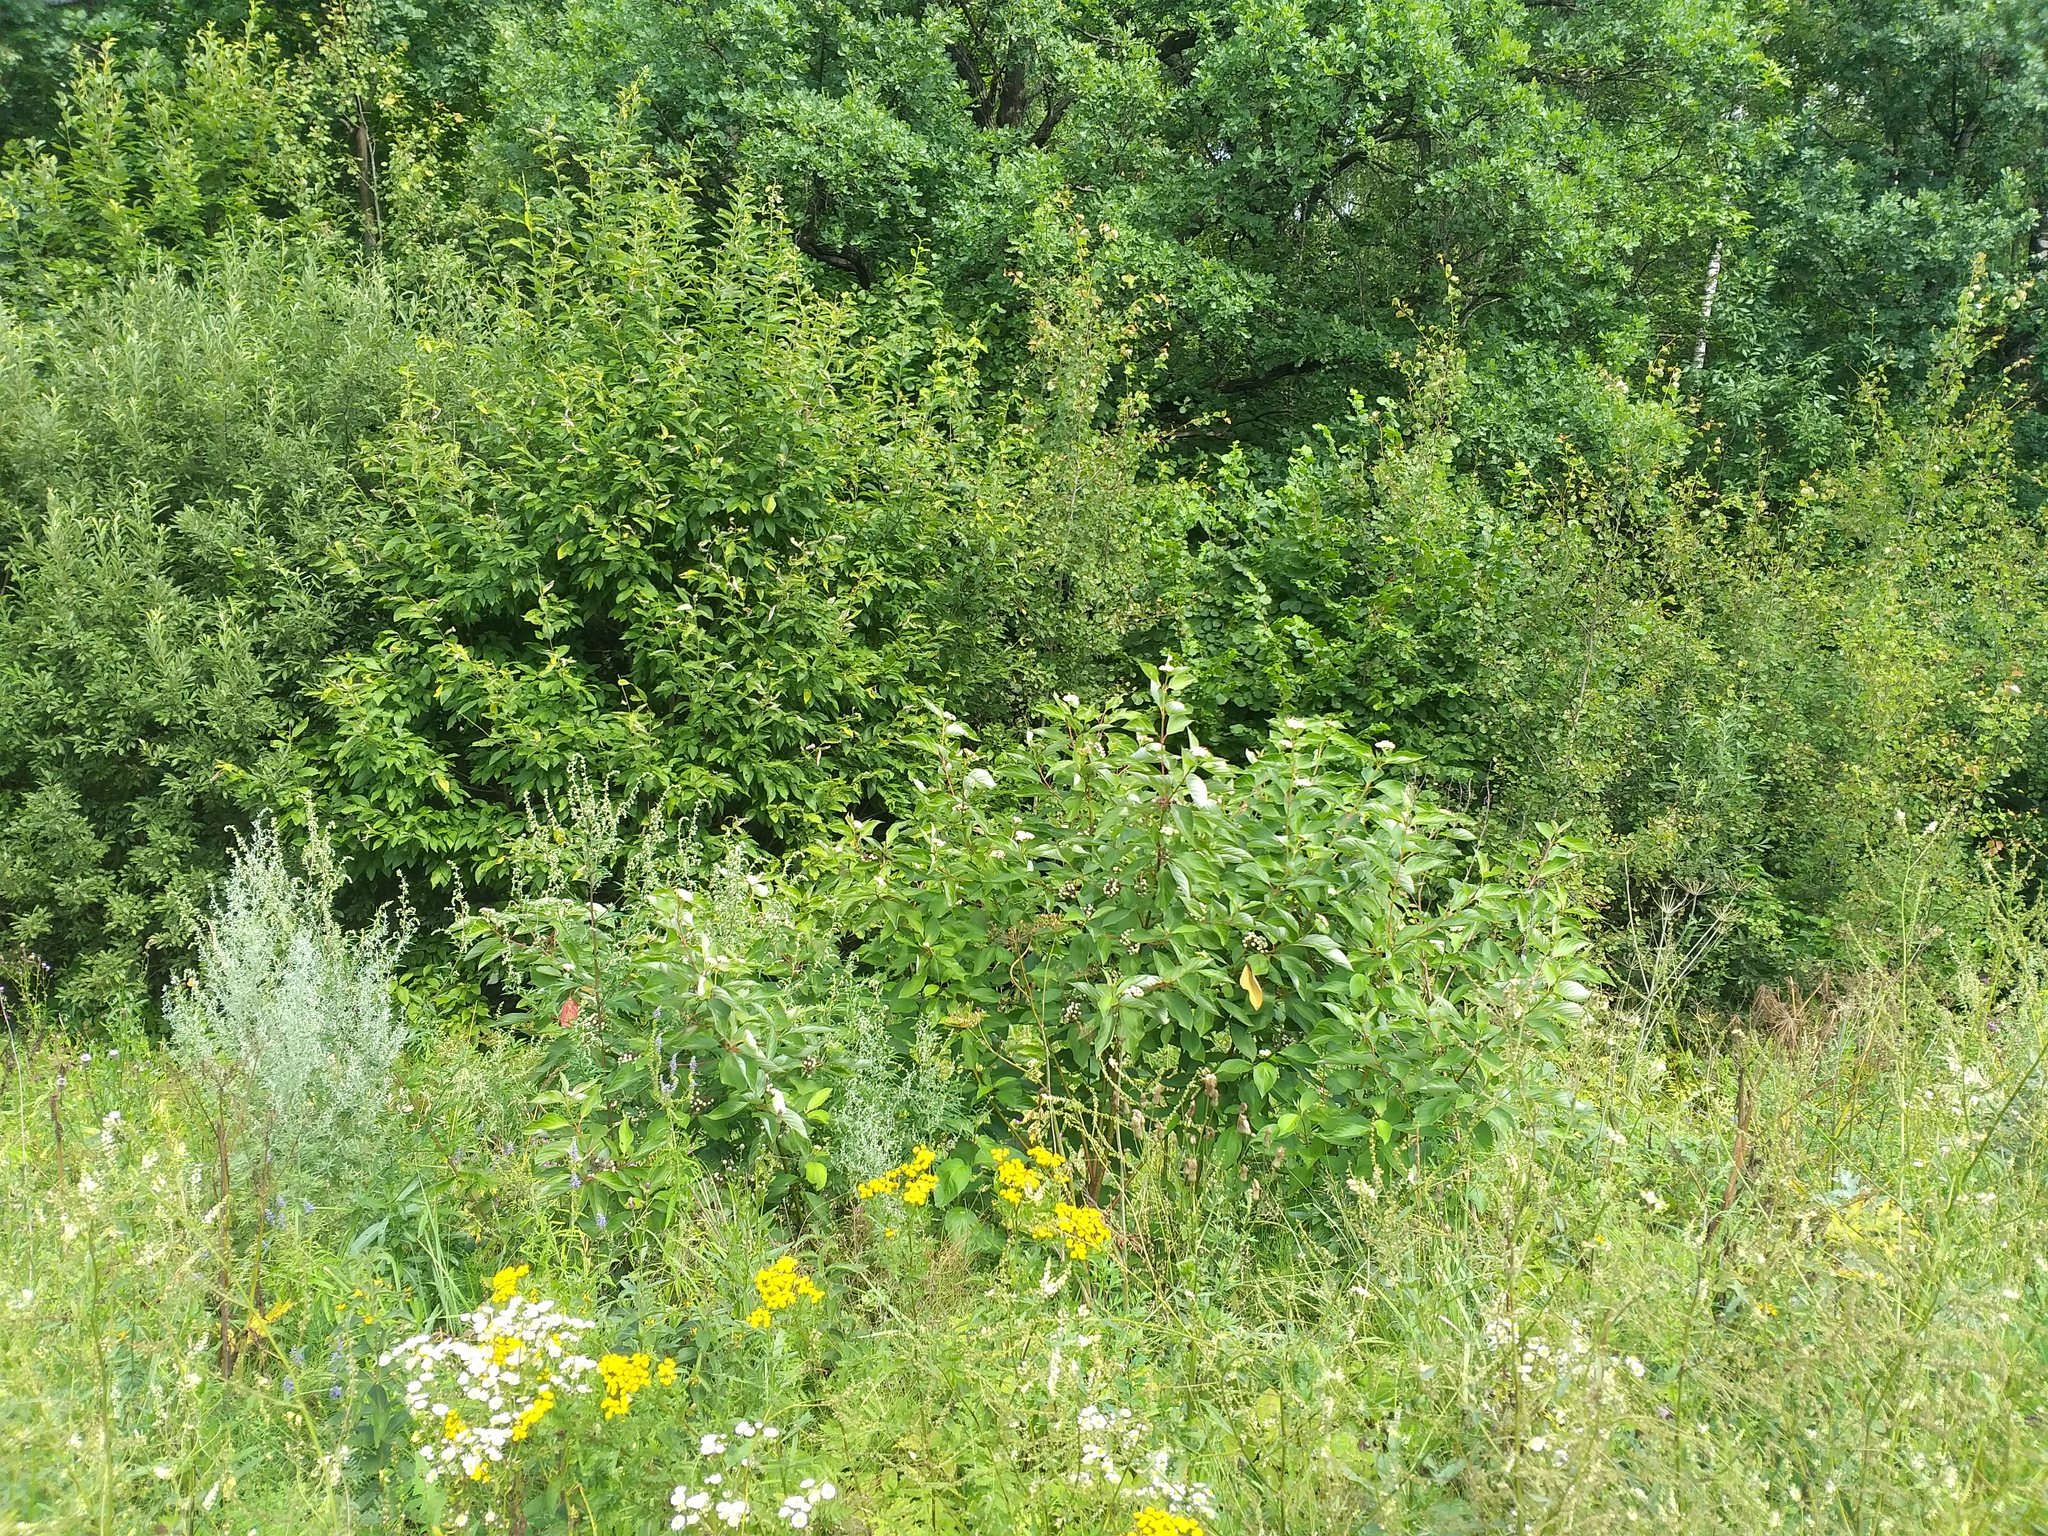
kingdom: Plantae
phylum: Tracheophyta
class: Magnoliopsida
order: Cornales
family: Cornaceae
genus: Cornus
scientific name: Cornus alba
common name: White dogwood
